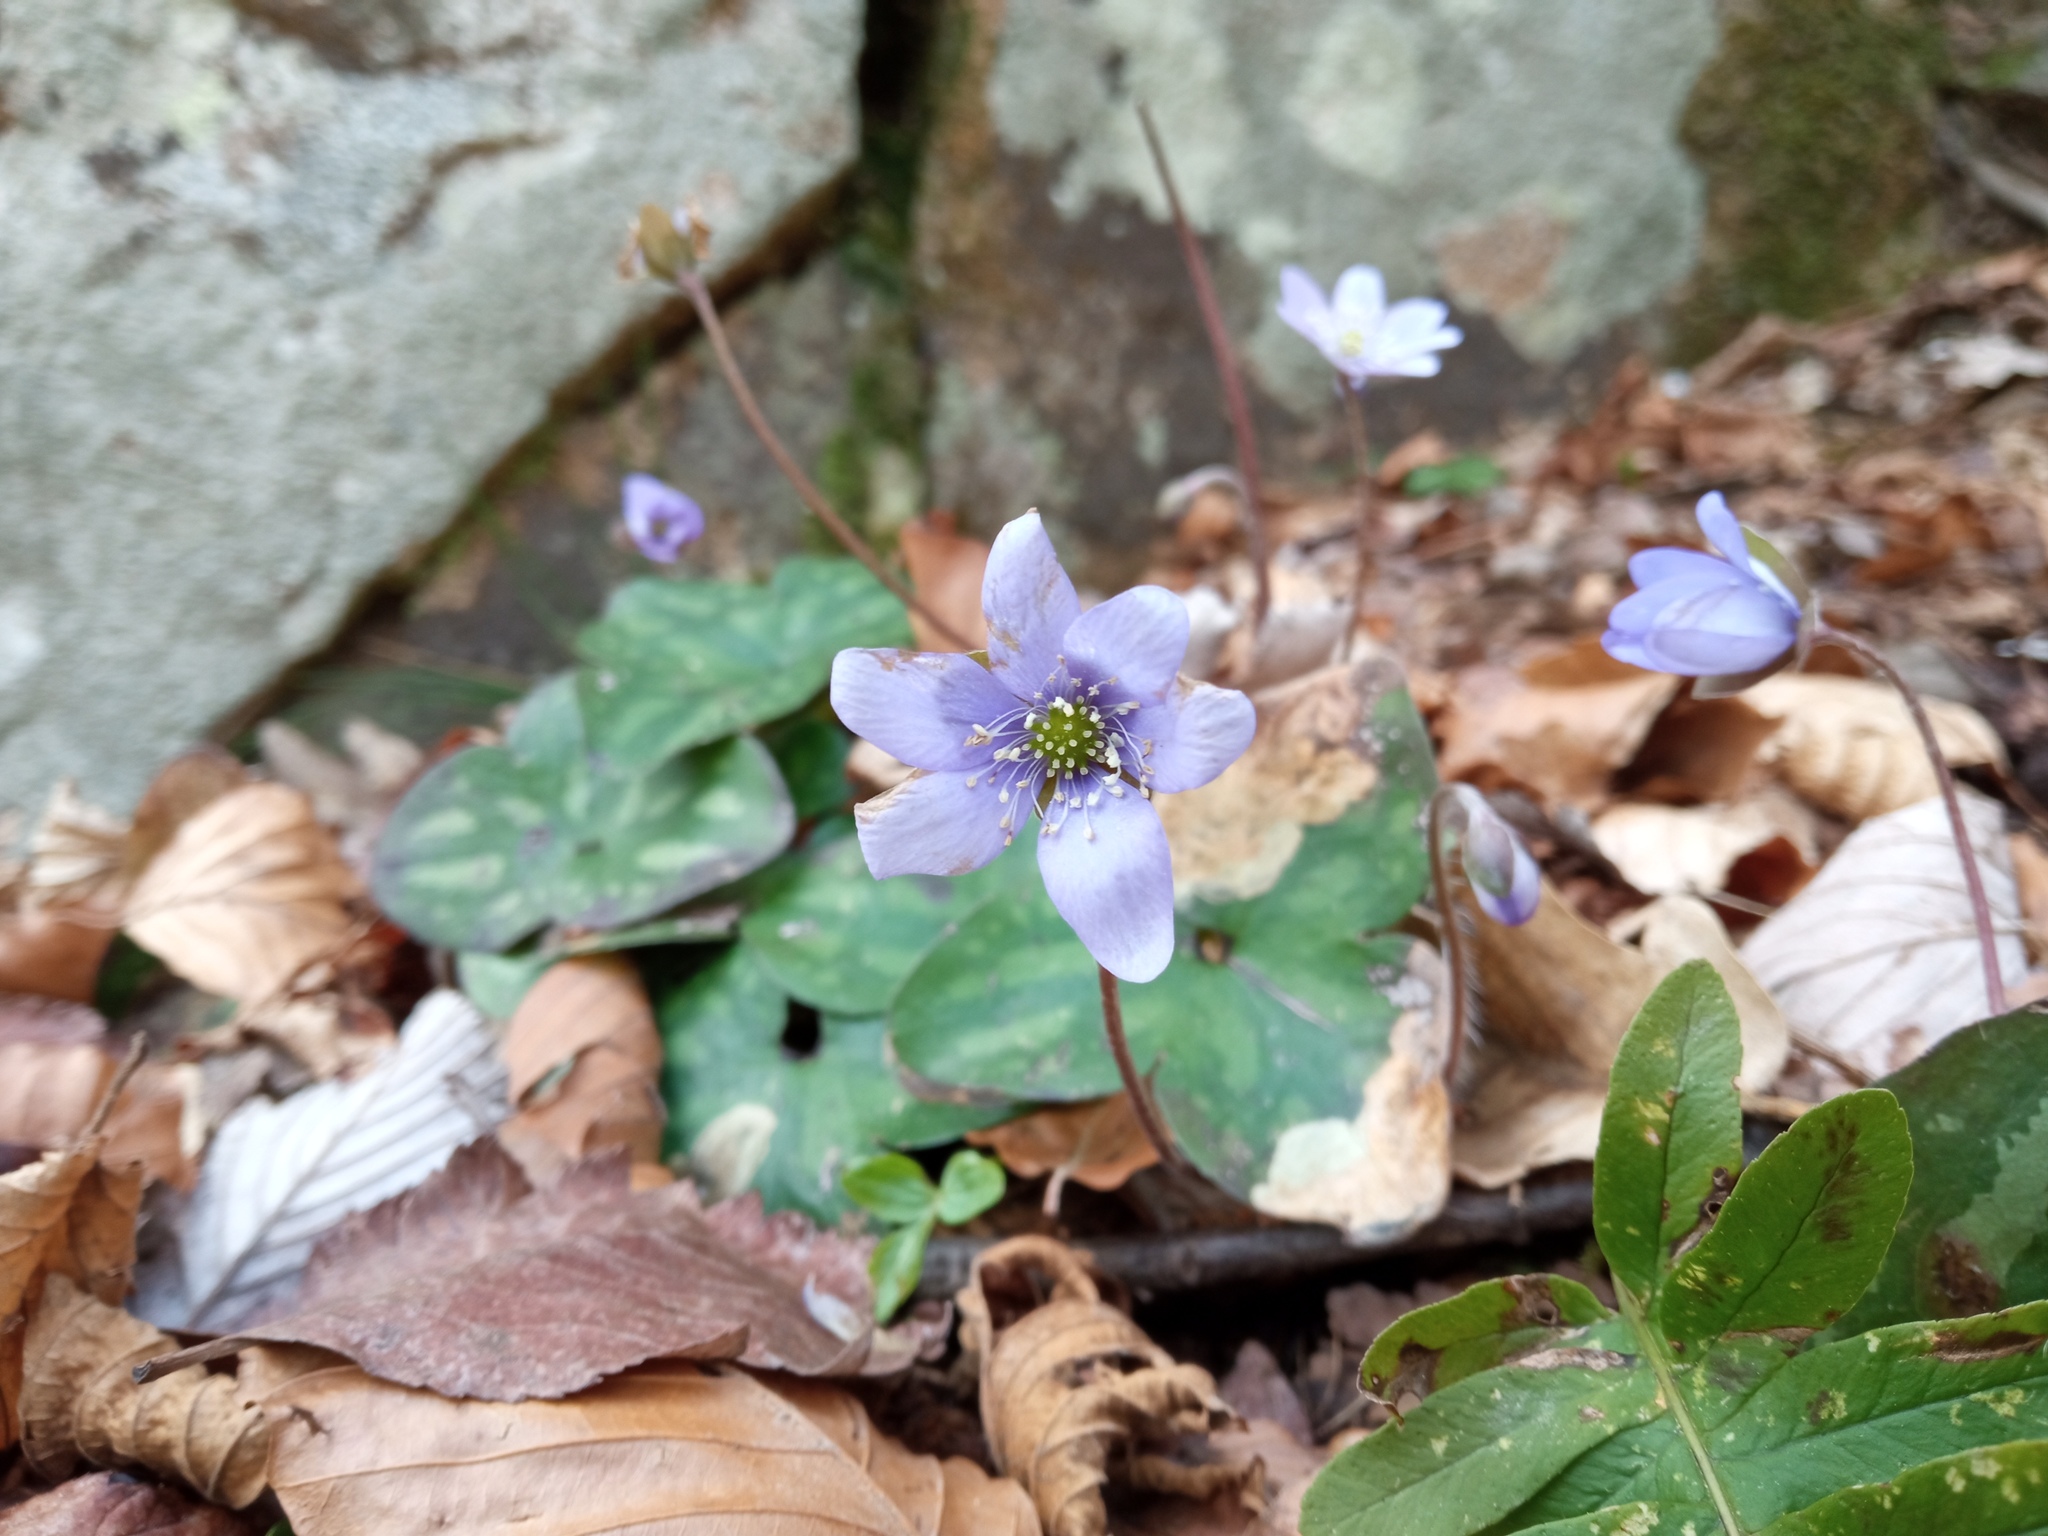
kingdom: Plantae
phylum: Tracheophyta
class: Magnoliopsida
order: Ranunculales
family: Ranunculaceae
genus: Hepatica
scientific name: Hepatica nobilis
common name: Liverleaf
